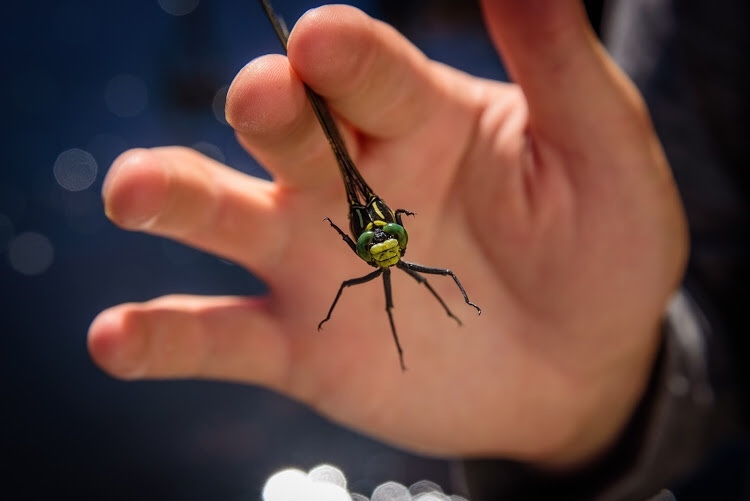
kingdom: Animalia
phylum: Arthropoda
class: Insecta
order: Odonata
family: Gomphidae
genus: Hagenius
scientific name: Hagenius brevistylus
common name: Dragonhunter
